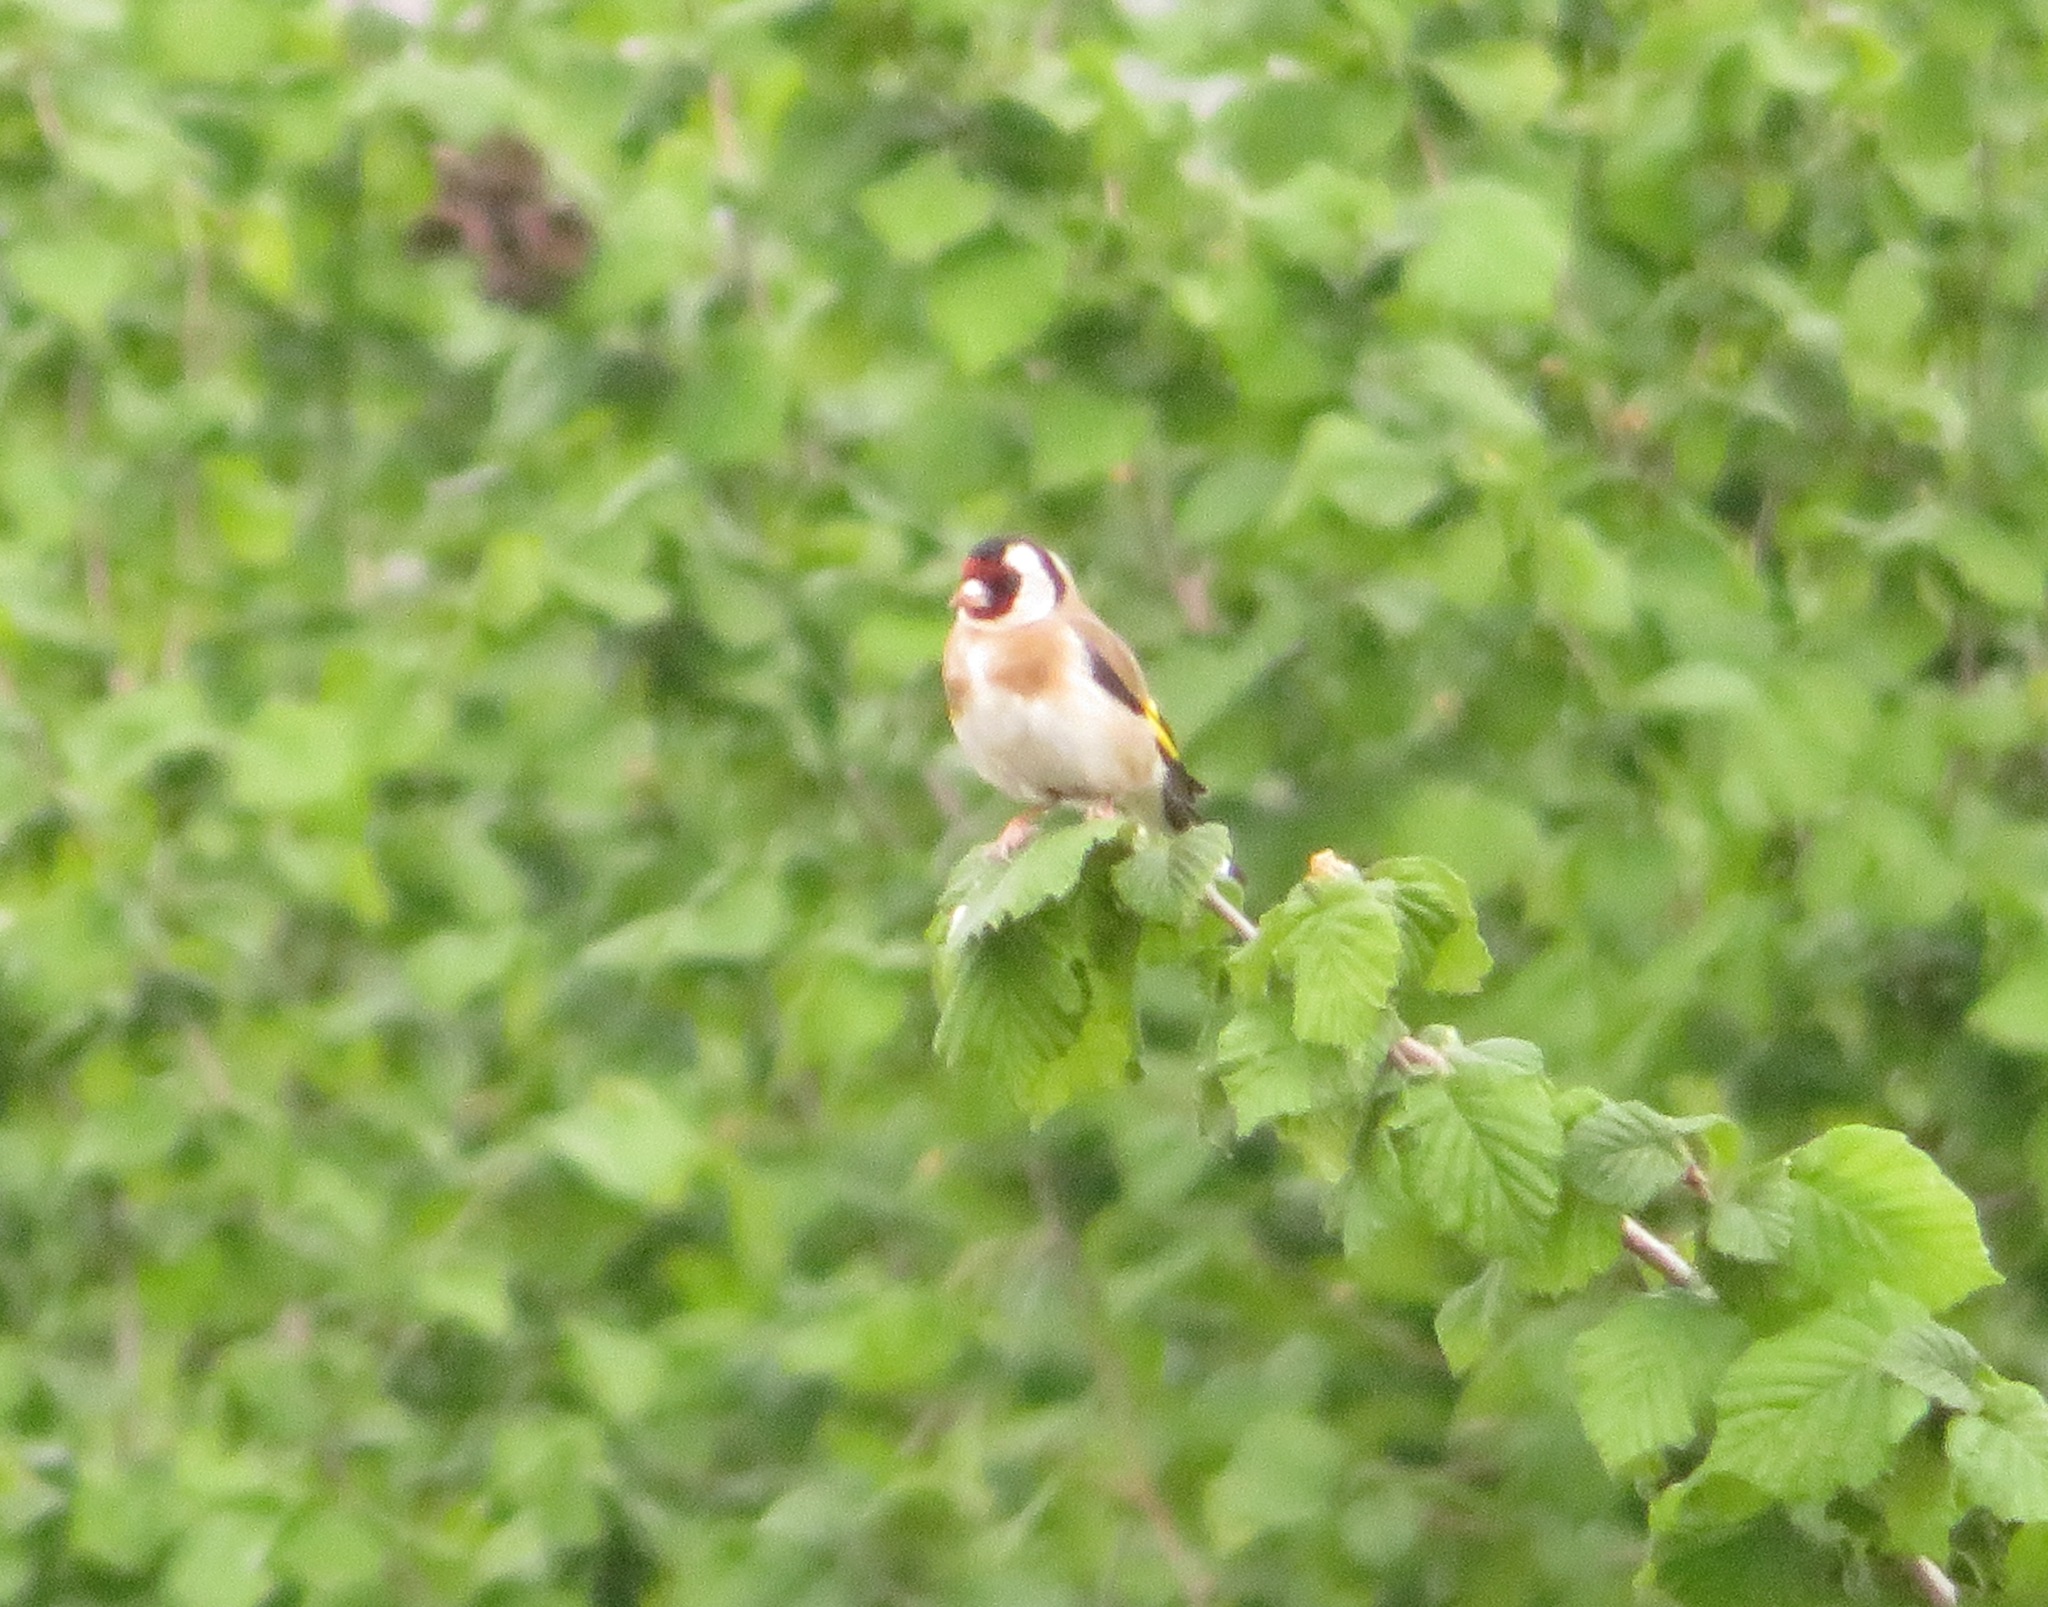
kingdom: Animalia
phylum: Chordata
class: Aves
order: Passeriformes
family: Fringillidae
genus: Carduelis
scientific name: Carduelis carduelis
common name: European goldfinch
